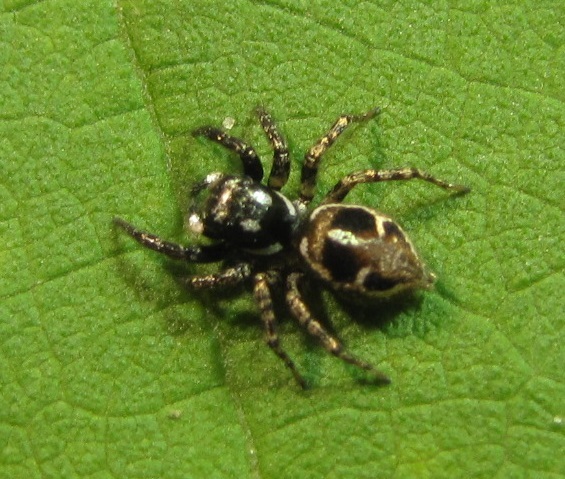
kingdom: Animalia
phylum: Arthropoda
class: Arachnida
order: Araneae
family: Salticidae
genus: Anasaitis
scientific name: Anasaitis canosa
